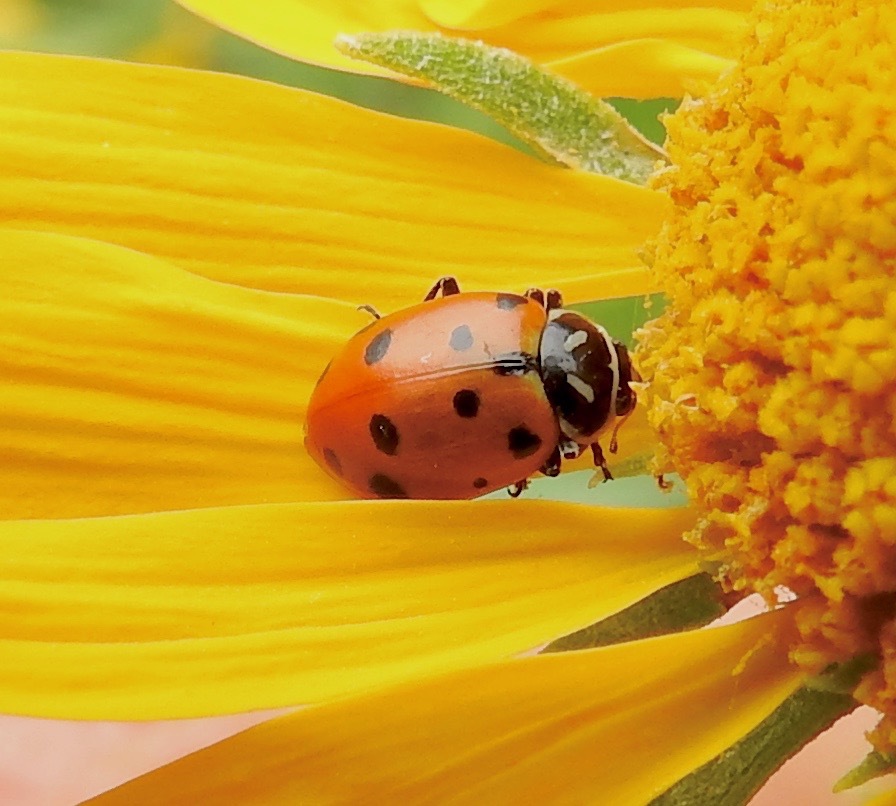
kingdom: Animalia
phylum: Arthropoda
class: Insecta
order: Coleoptera
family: Coccinellidae
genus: Hippodamia
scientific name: Hippodamia convergens
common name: Convergent lady beetle
